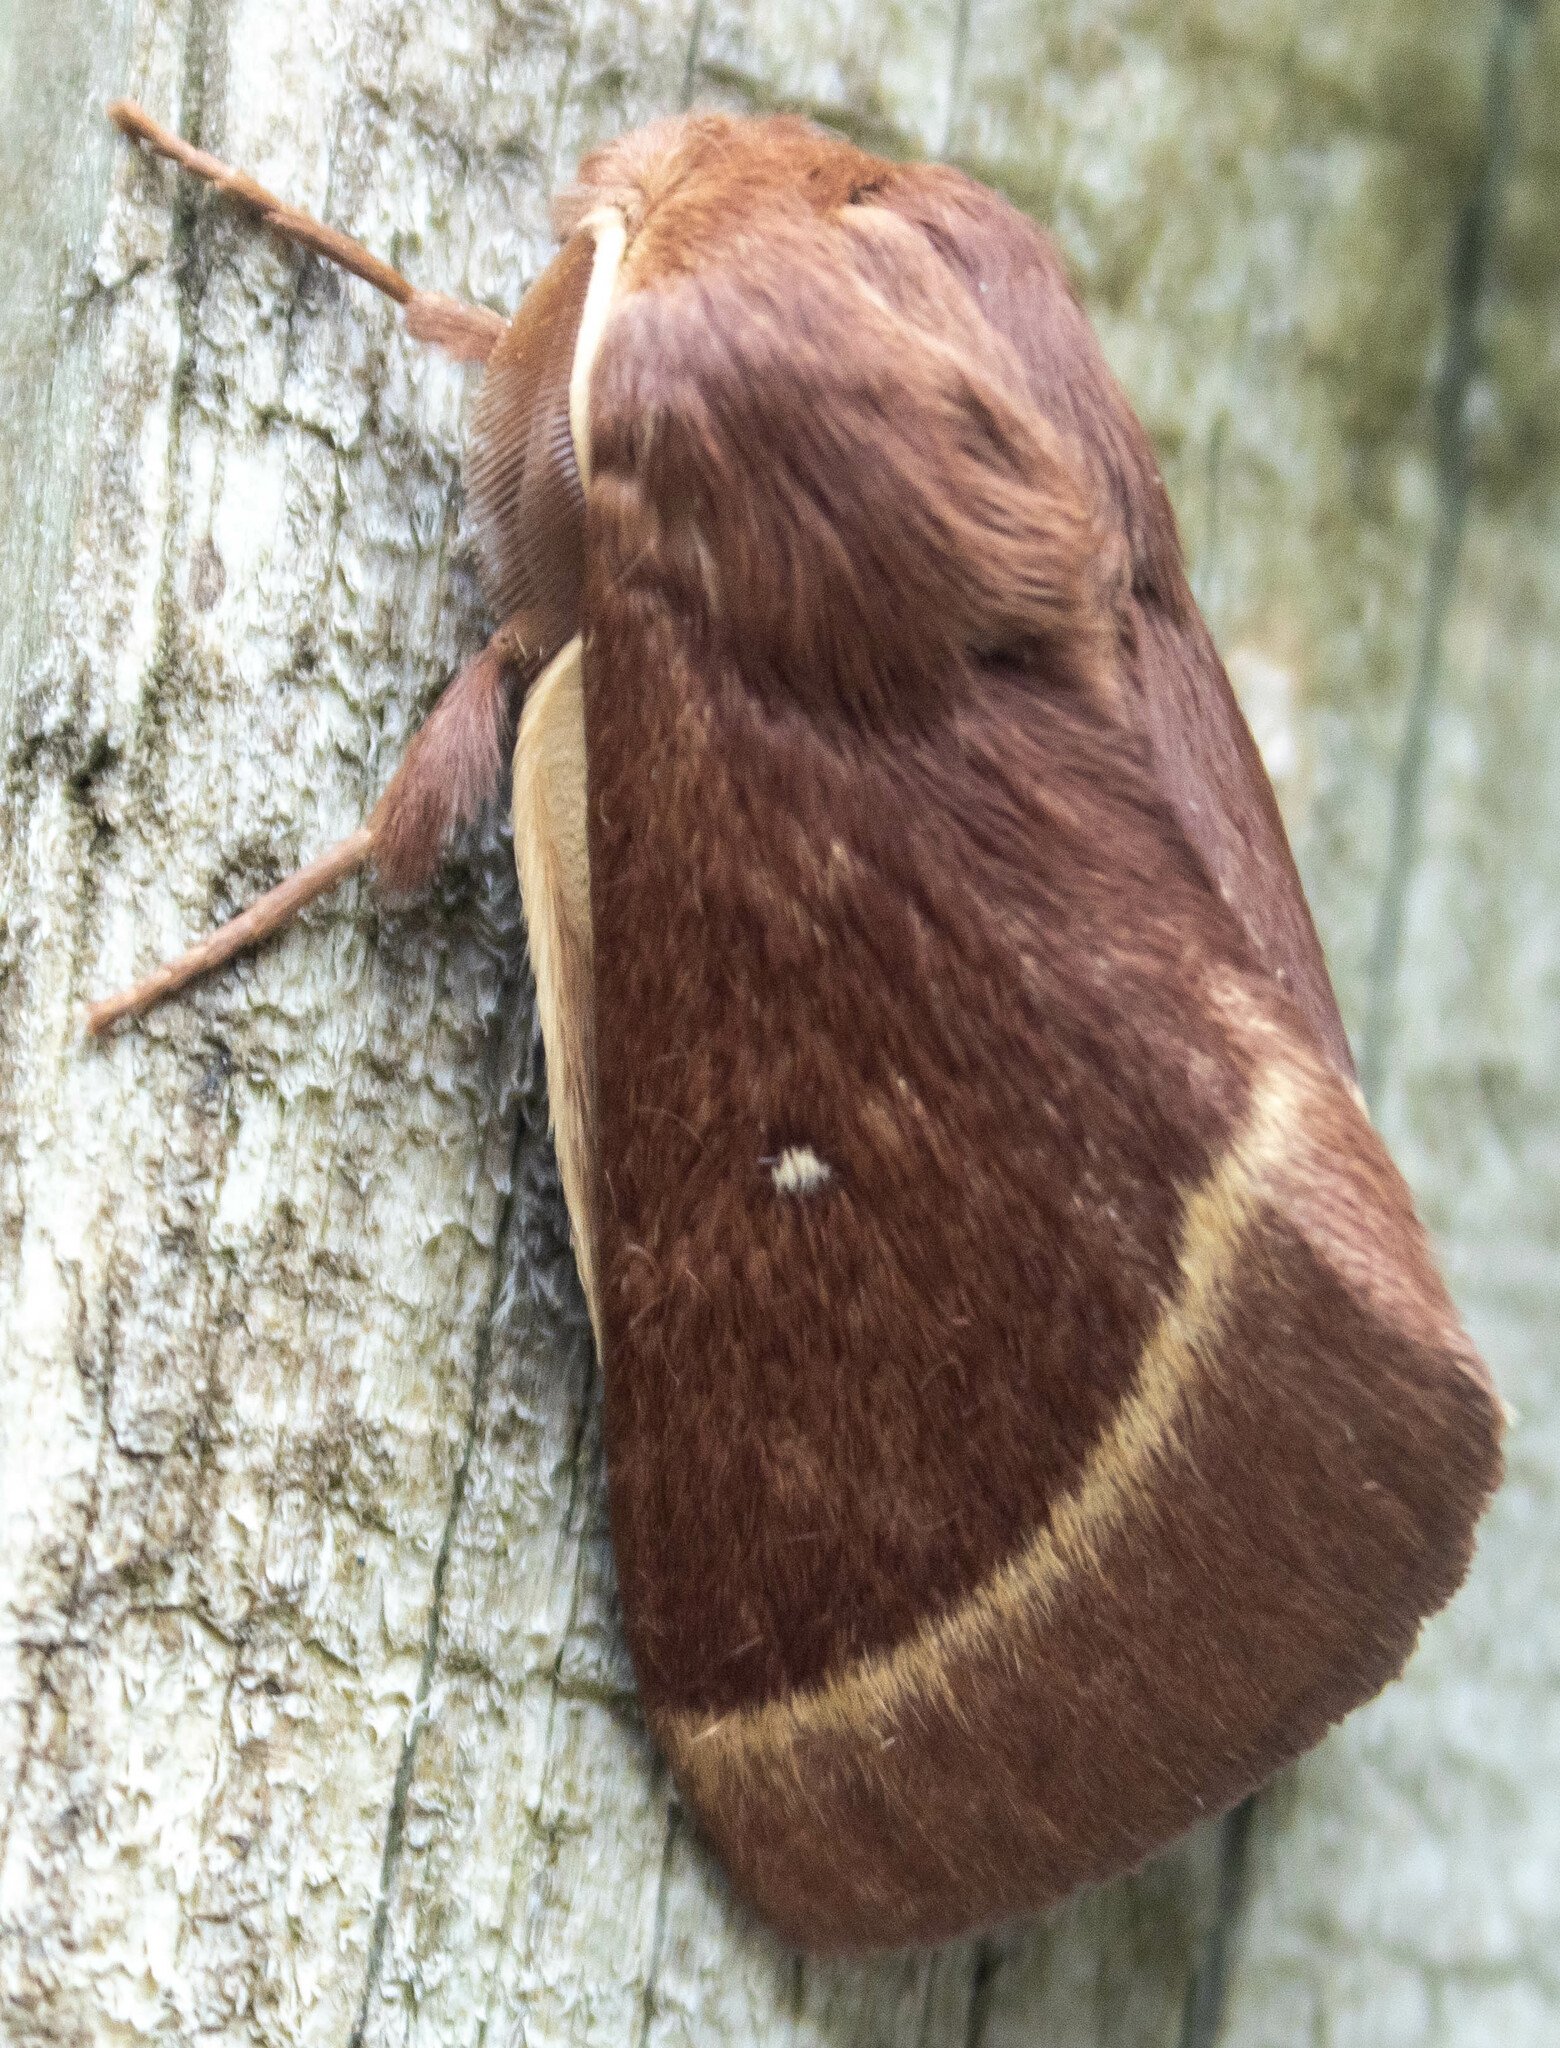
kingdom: Animalia
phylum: Arthropoda
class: Insecta
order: Lepidoptera
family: Lasiocampidae
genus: Lasiocampa
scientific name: Lasiocampa trifolii
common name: Grass eggar
